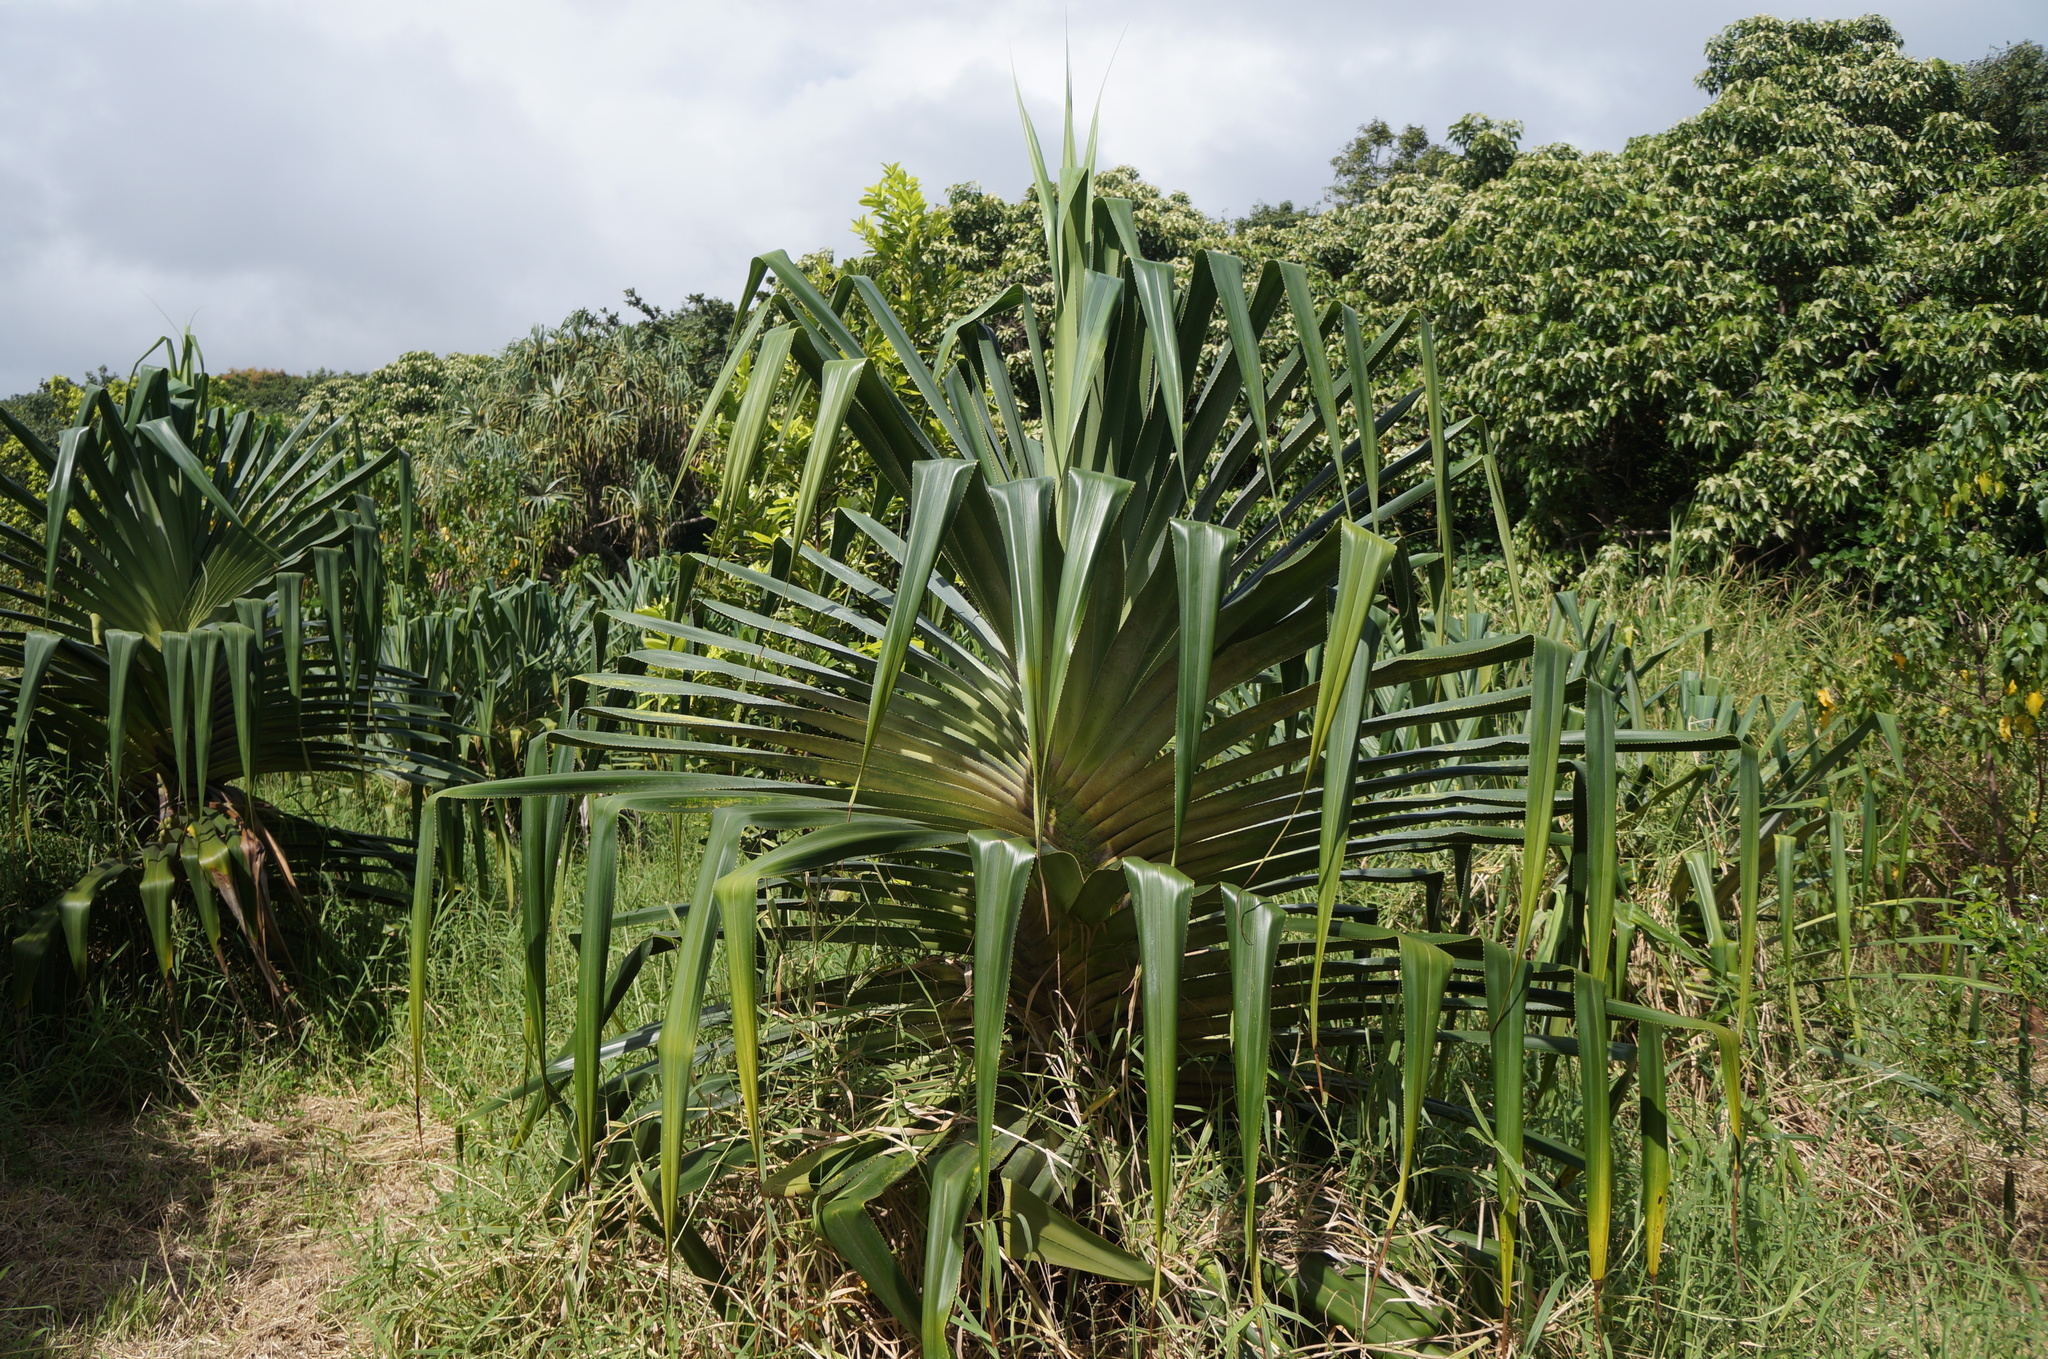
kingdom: Plantae
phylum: Tracheophyta
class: Liliopsida
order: Pandanales
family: Pandanaceae
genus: Pandanus
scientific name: Pandanus tectorius
